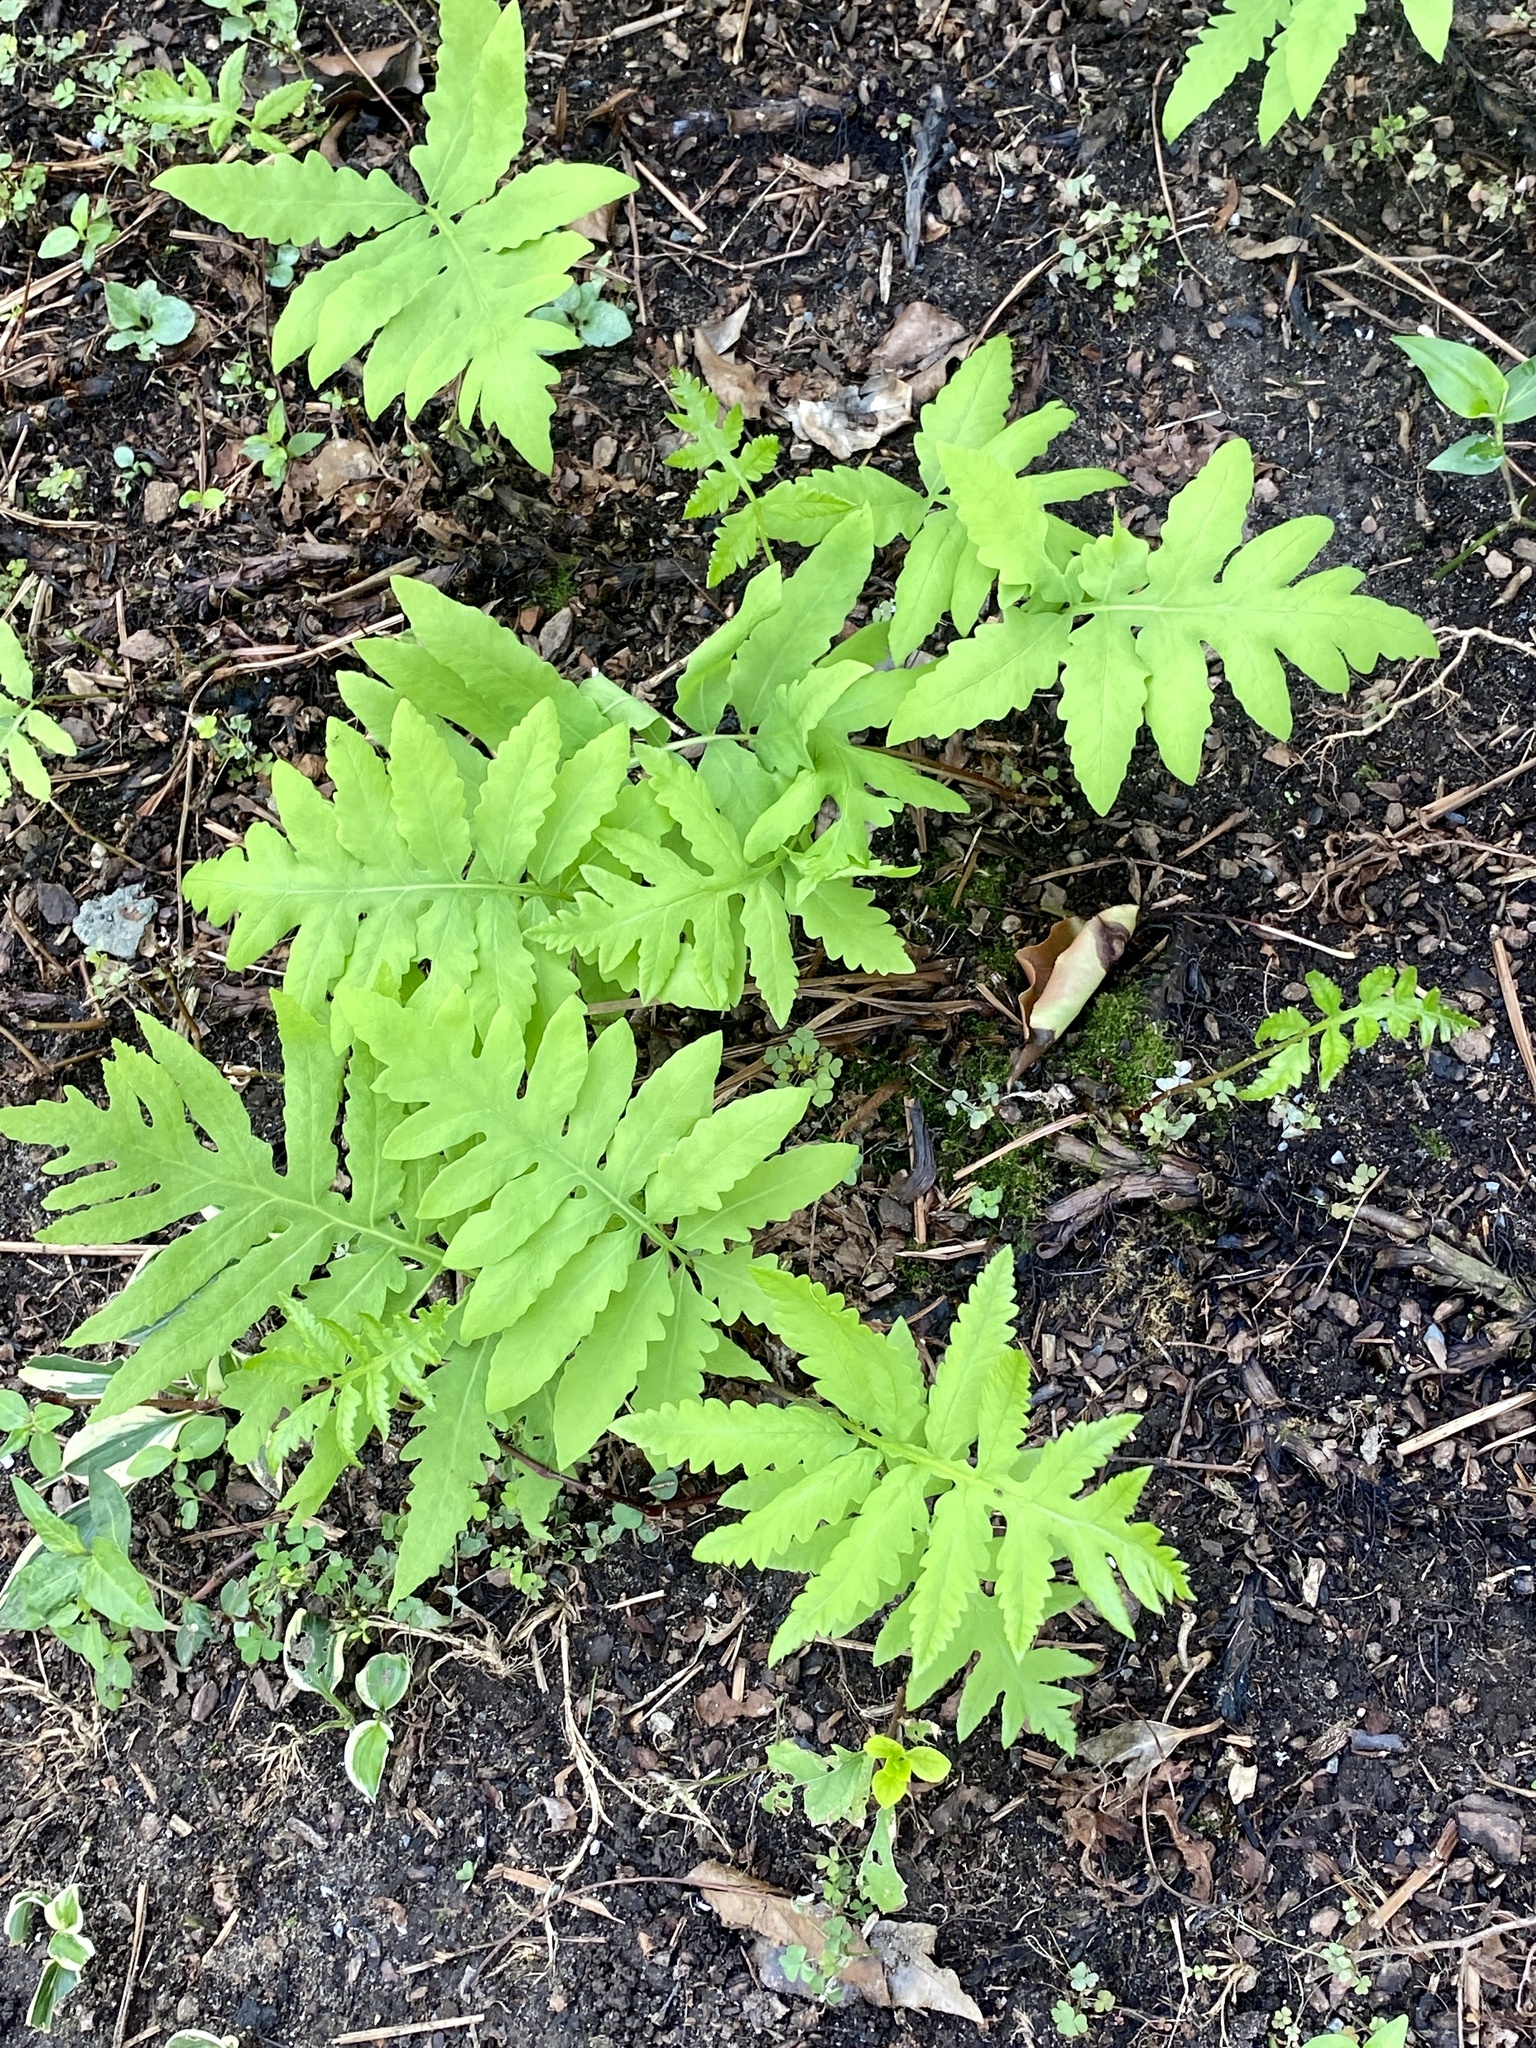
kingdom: Plantae
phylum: Tracheophyta
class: Polypodiopsida
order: Polypodiales
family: Onocleaceae
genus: Onoclea
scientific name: Onoclea sensibilis
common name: Sensitive fern
